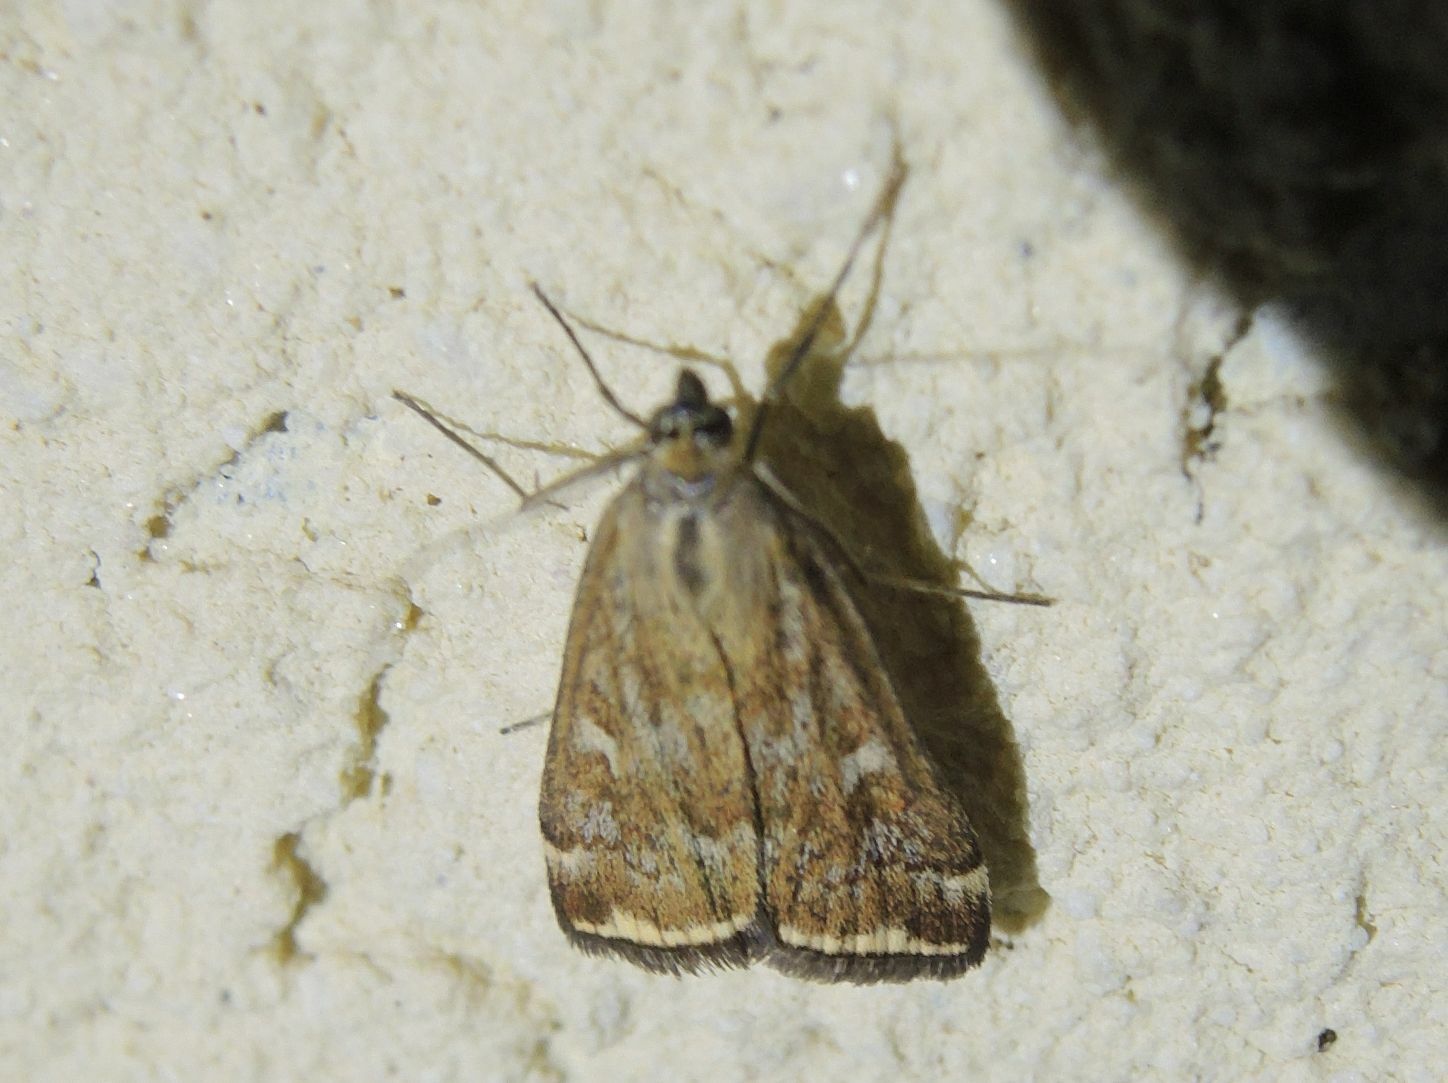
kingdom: Animalia
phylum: Arthropoda
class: Insecta
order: Lepidoptera
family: Crambidae
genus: Loxostege
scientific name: Loxostege sticticalis
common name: Crambid moth
